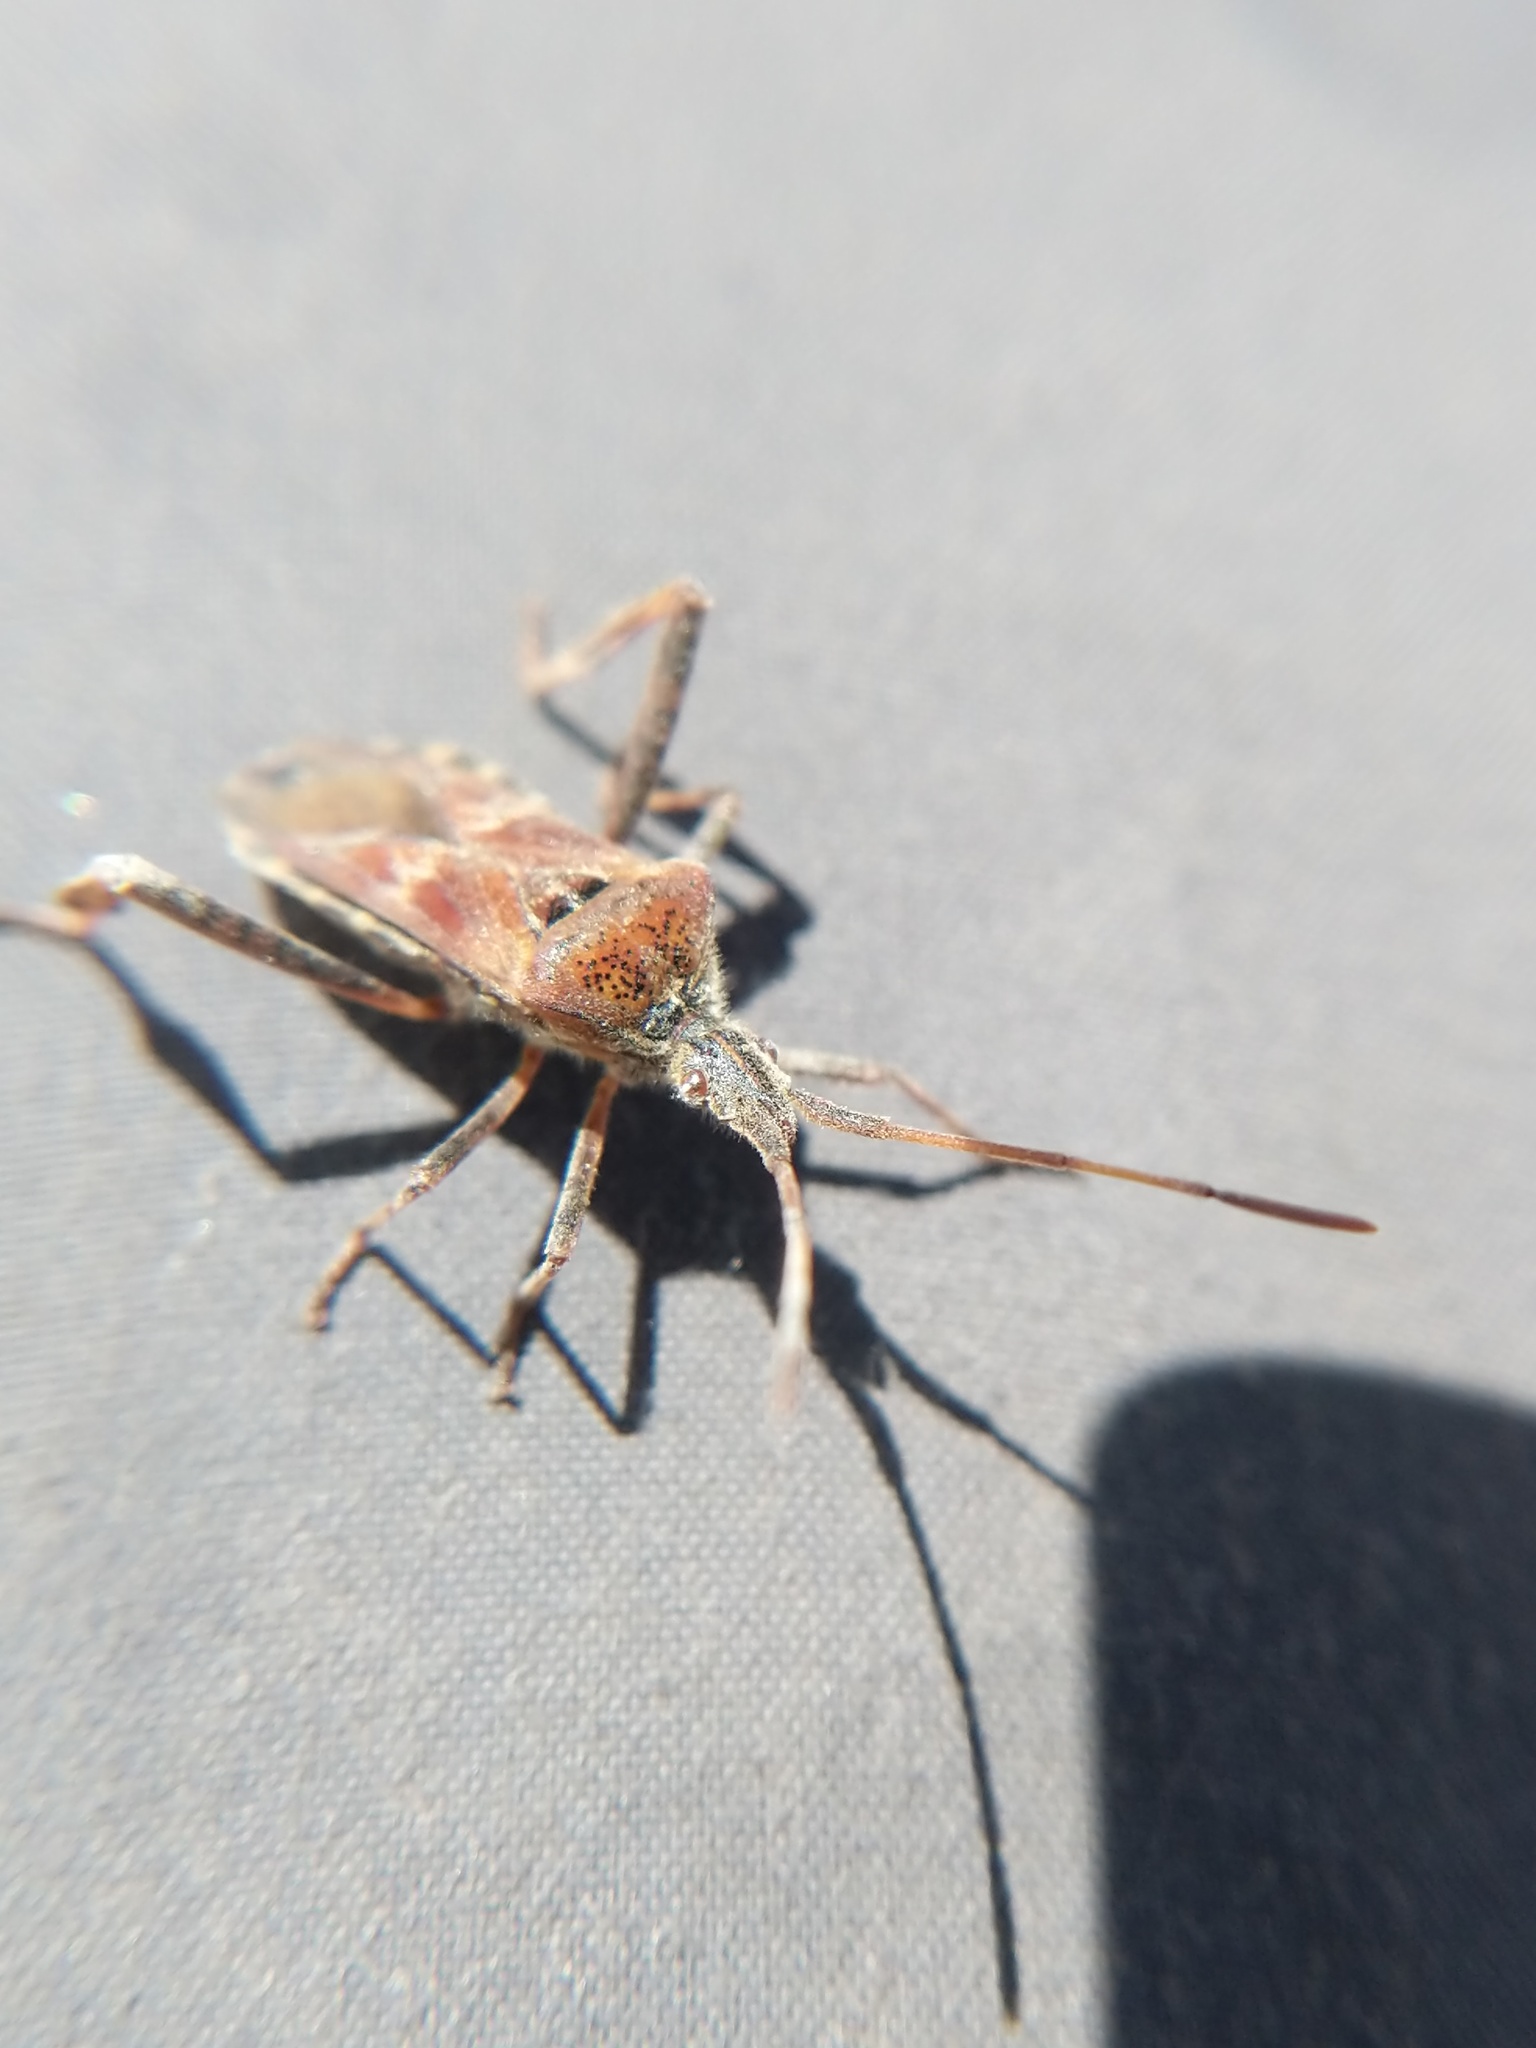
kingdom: Animalia
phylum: Arthropoda
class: Insecta
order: Hemiptera
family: Coreidae
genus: Leptoglossus
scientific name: Leptoglossus occidentalis
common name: Western conifer-seed bug
